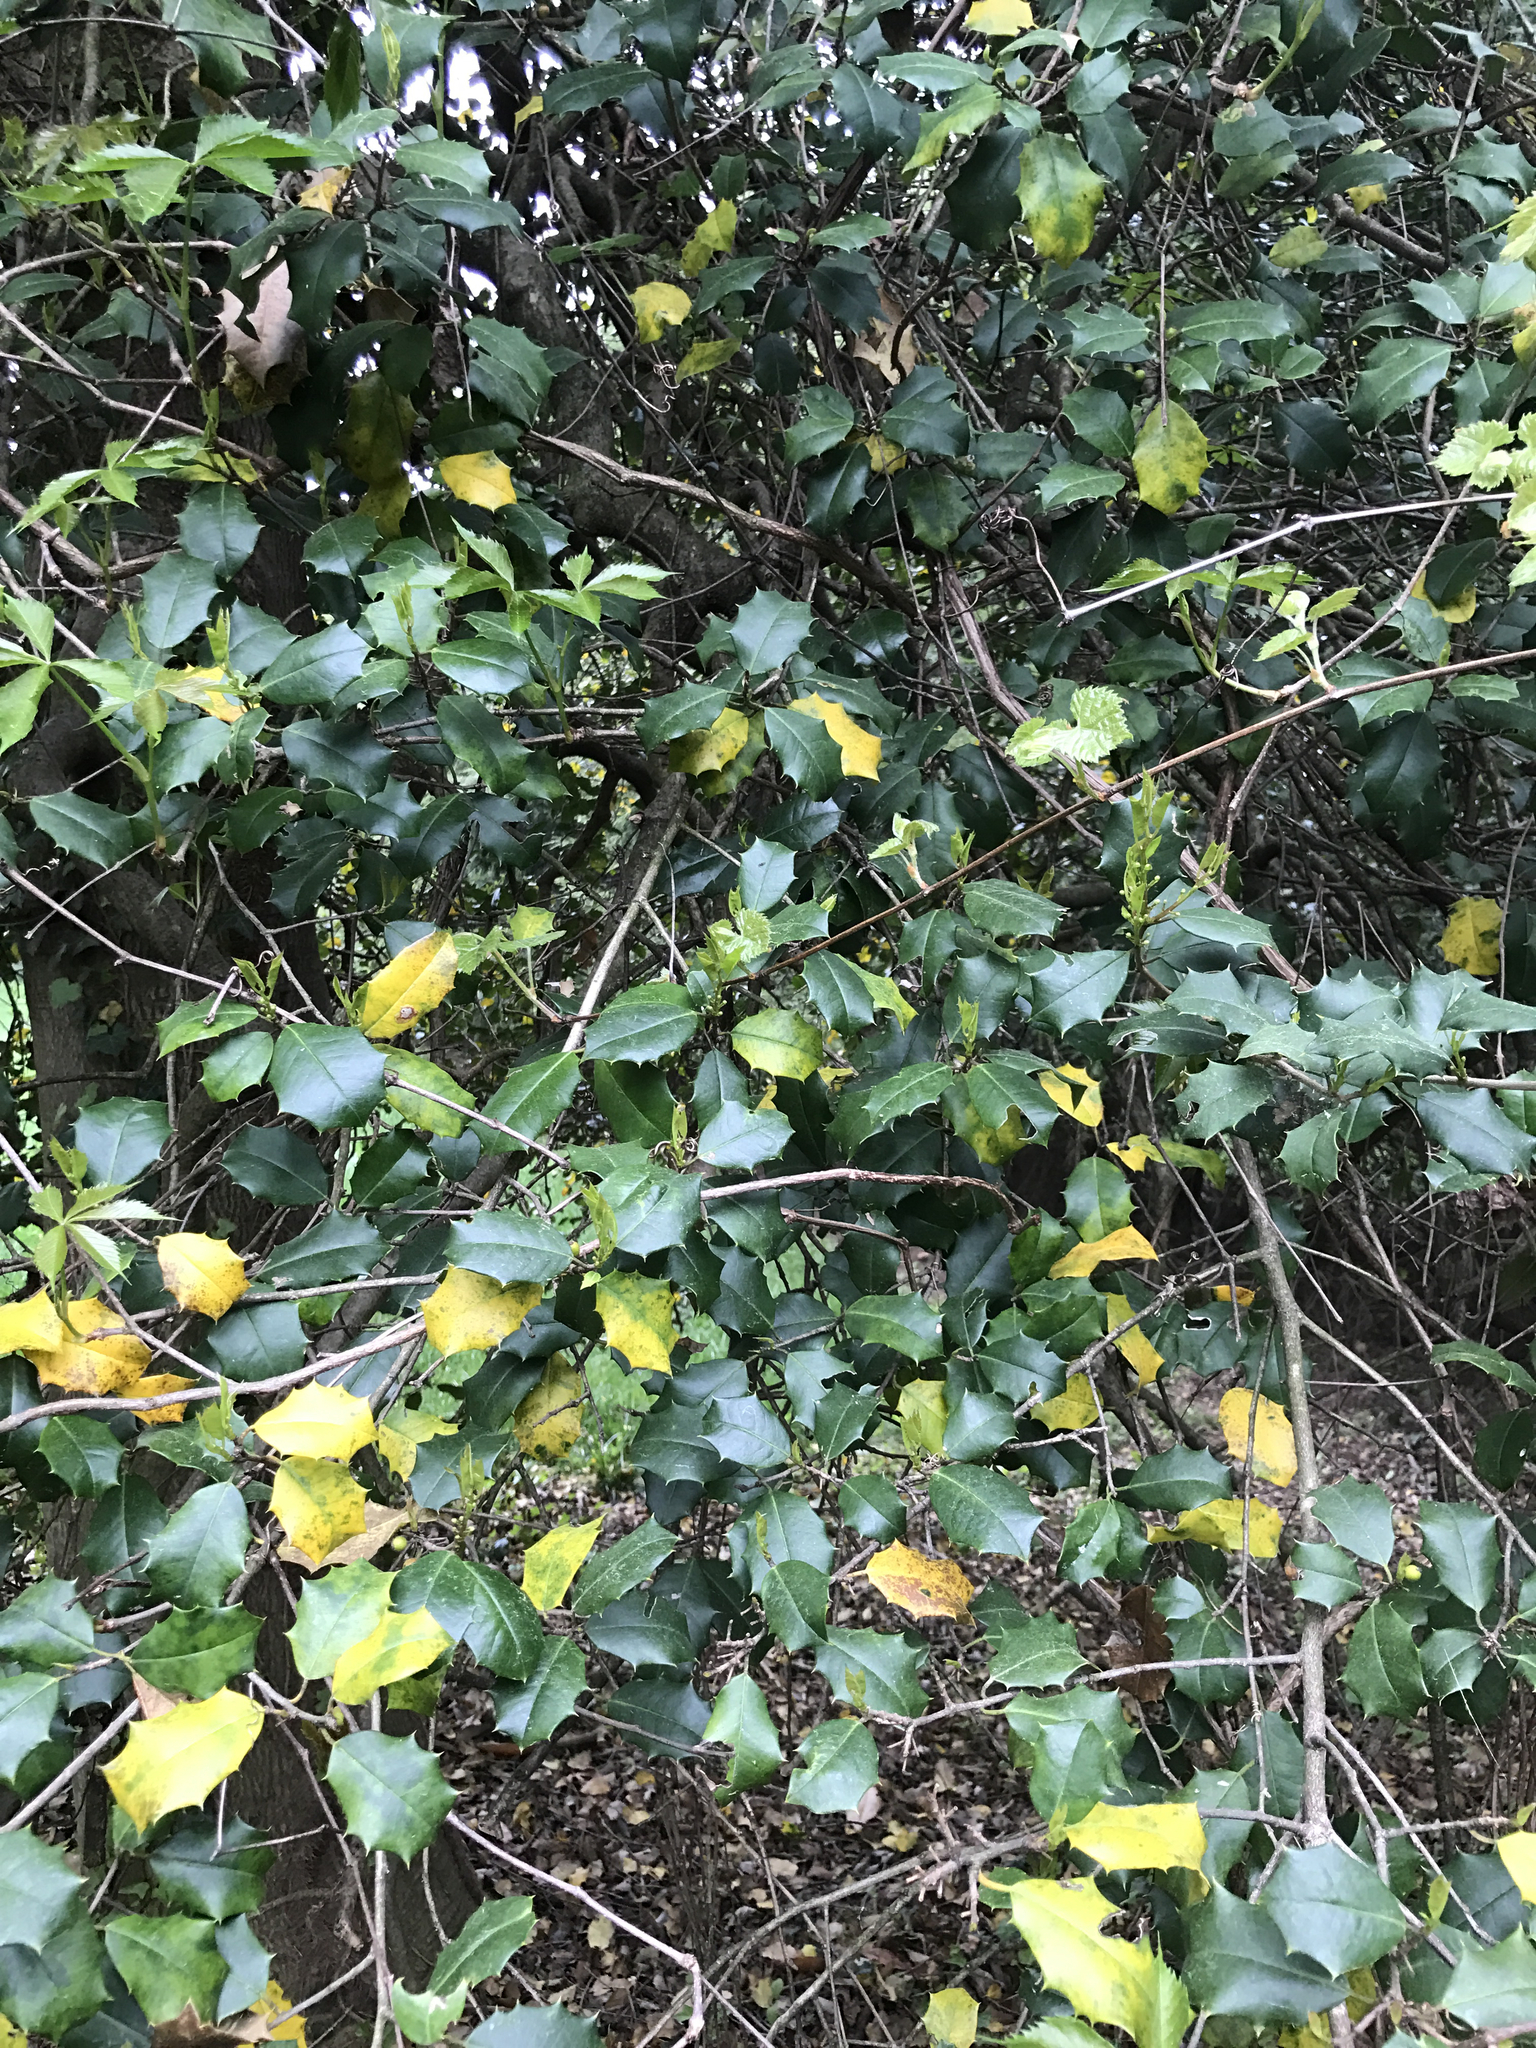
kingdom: Plantae
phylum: Tracheophyta
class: Magnoliopsida
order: Aquifoliales
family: Aquifoliaceae
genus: Ilex
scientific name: Ilex opaca
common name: American holly
